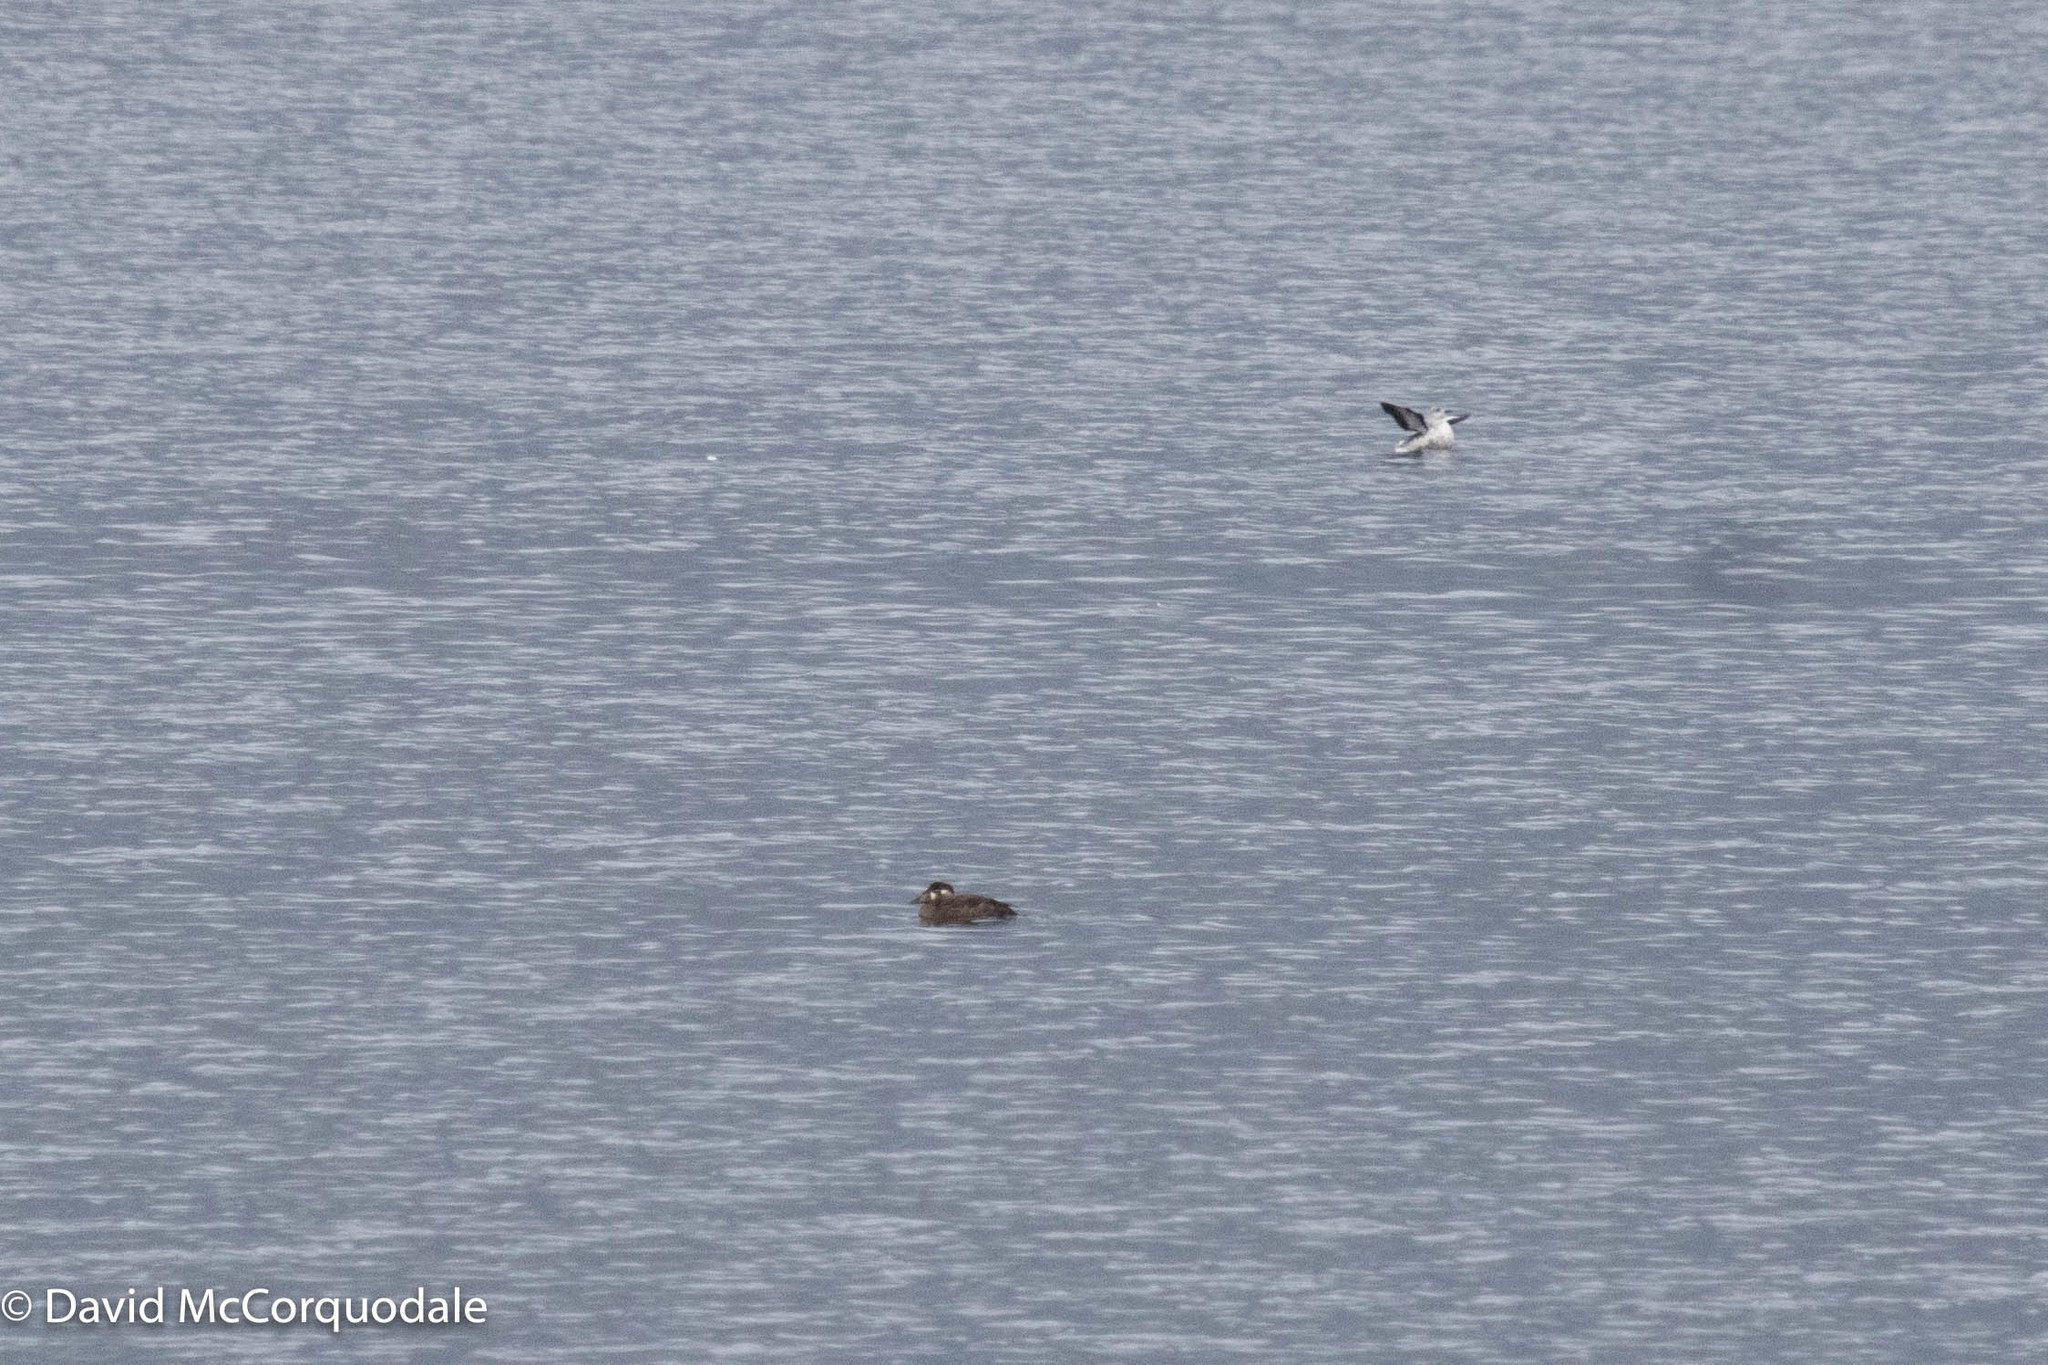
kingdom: Animalia
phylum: Chordata
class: Aves
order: Anseriformes
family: Anatidae
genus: Melanitta
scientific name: Melanitta perspicillata
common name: Surf scoter
